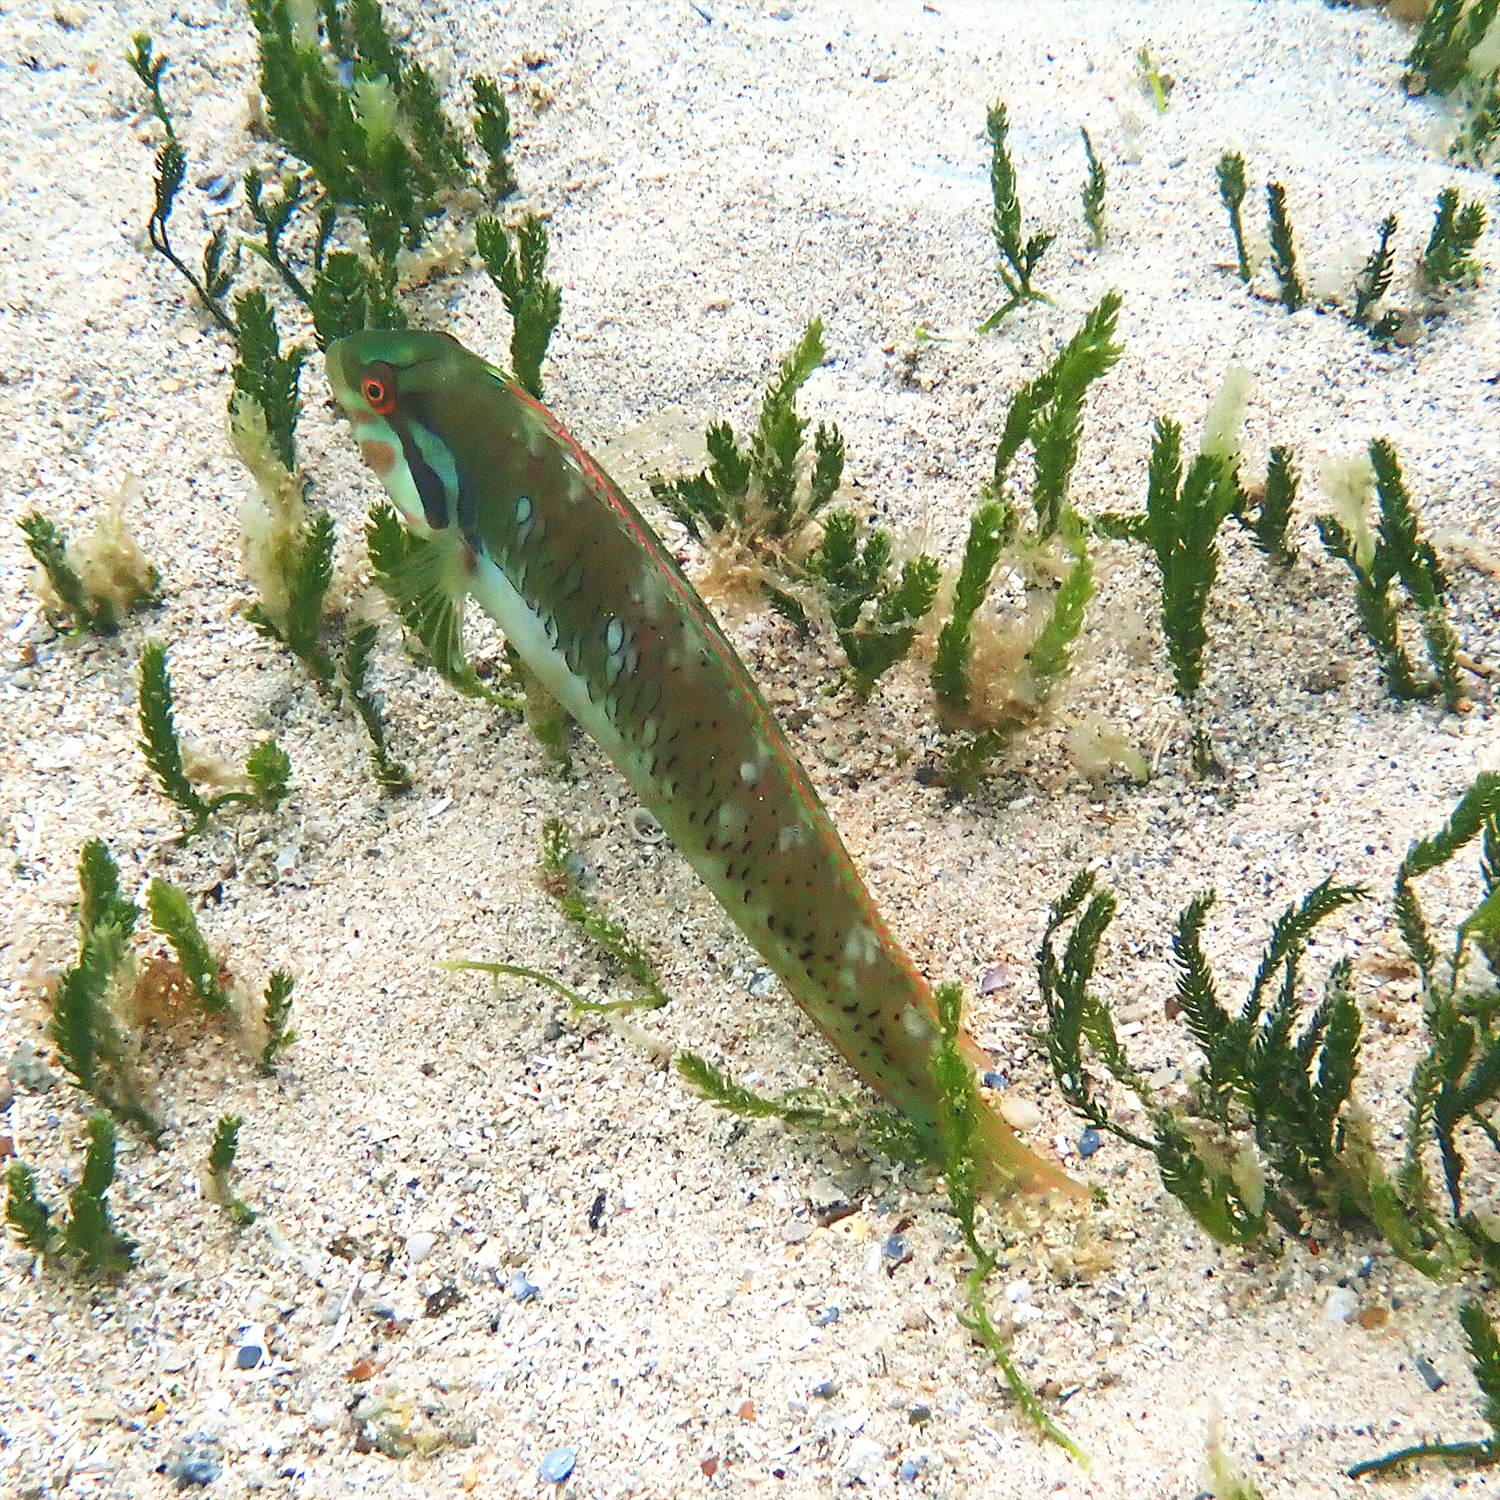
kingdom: Animalia
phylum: Chordata
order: Perciformes
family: Labridae
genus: Novaculoides
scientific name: Novaculoides macrolepidotus
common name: Seagrass wrasse
